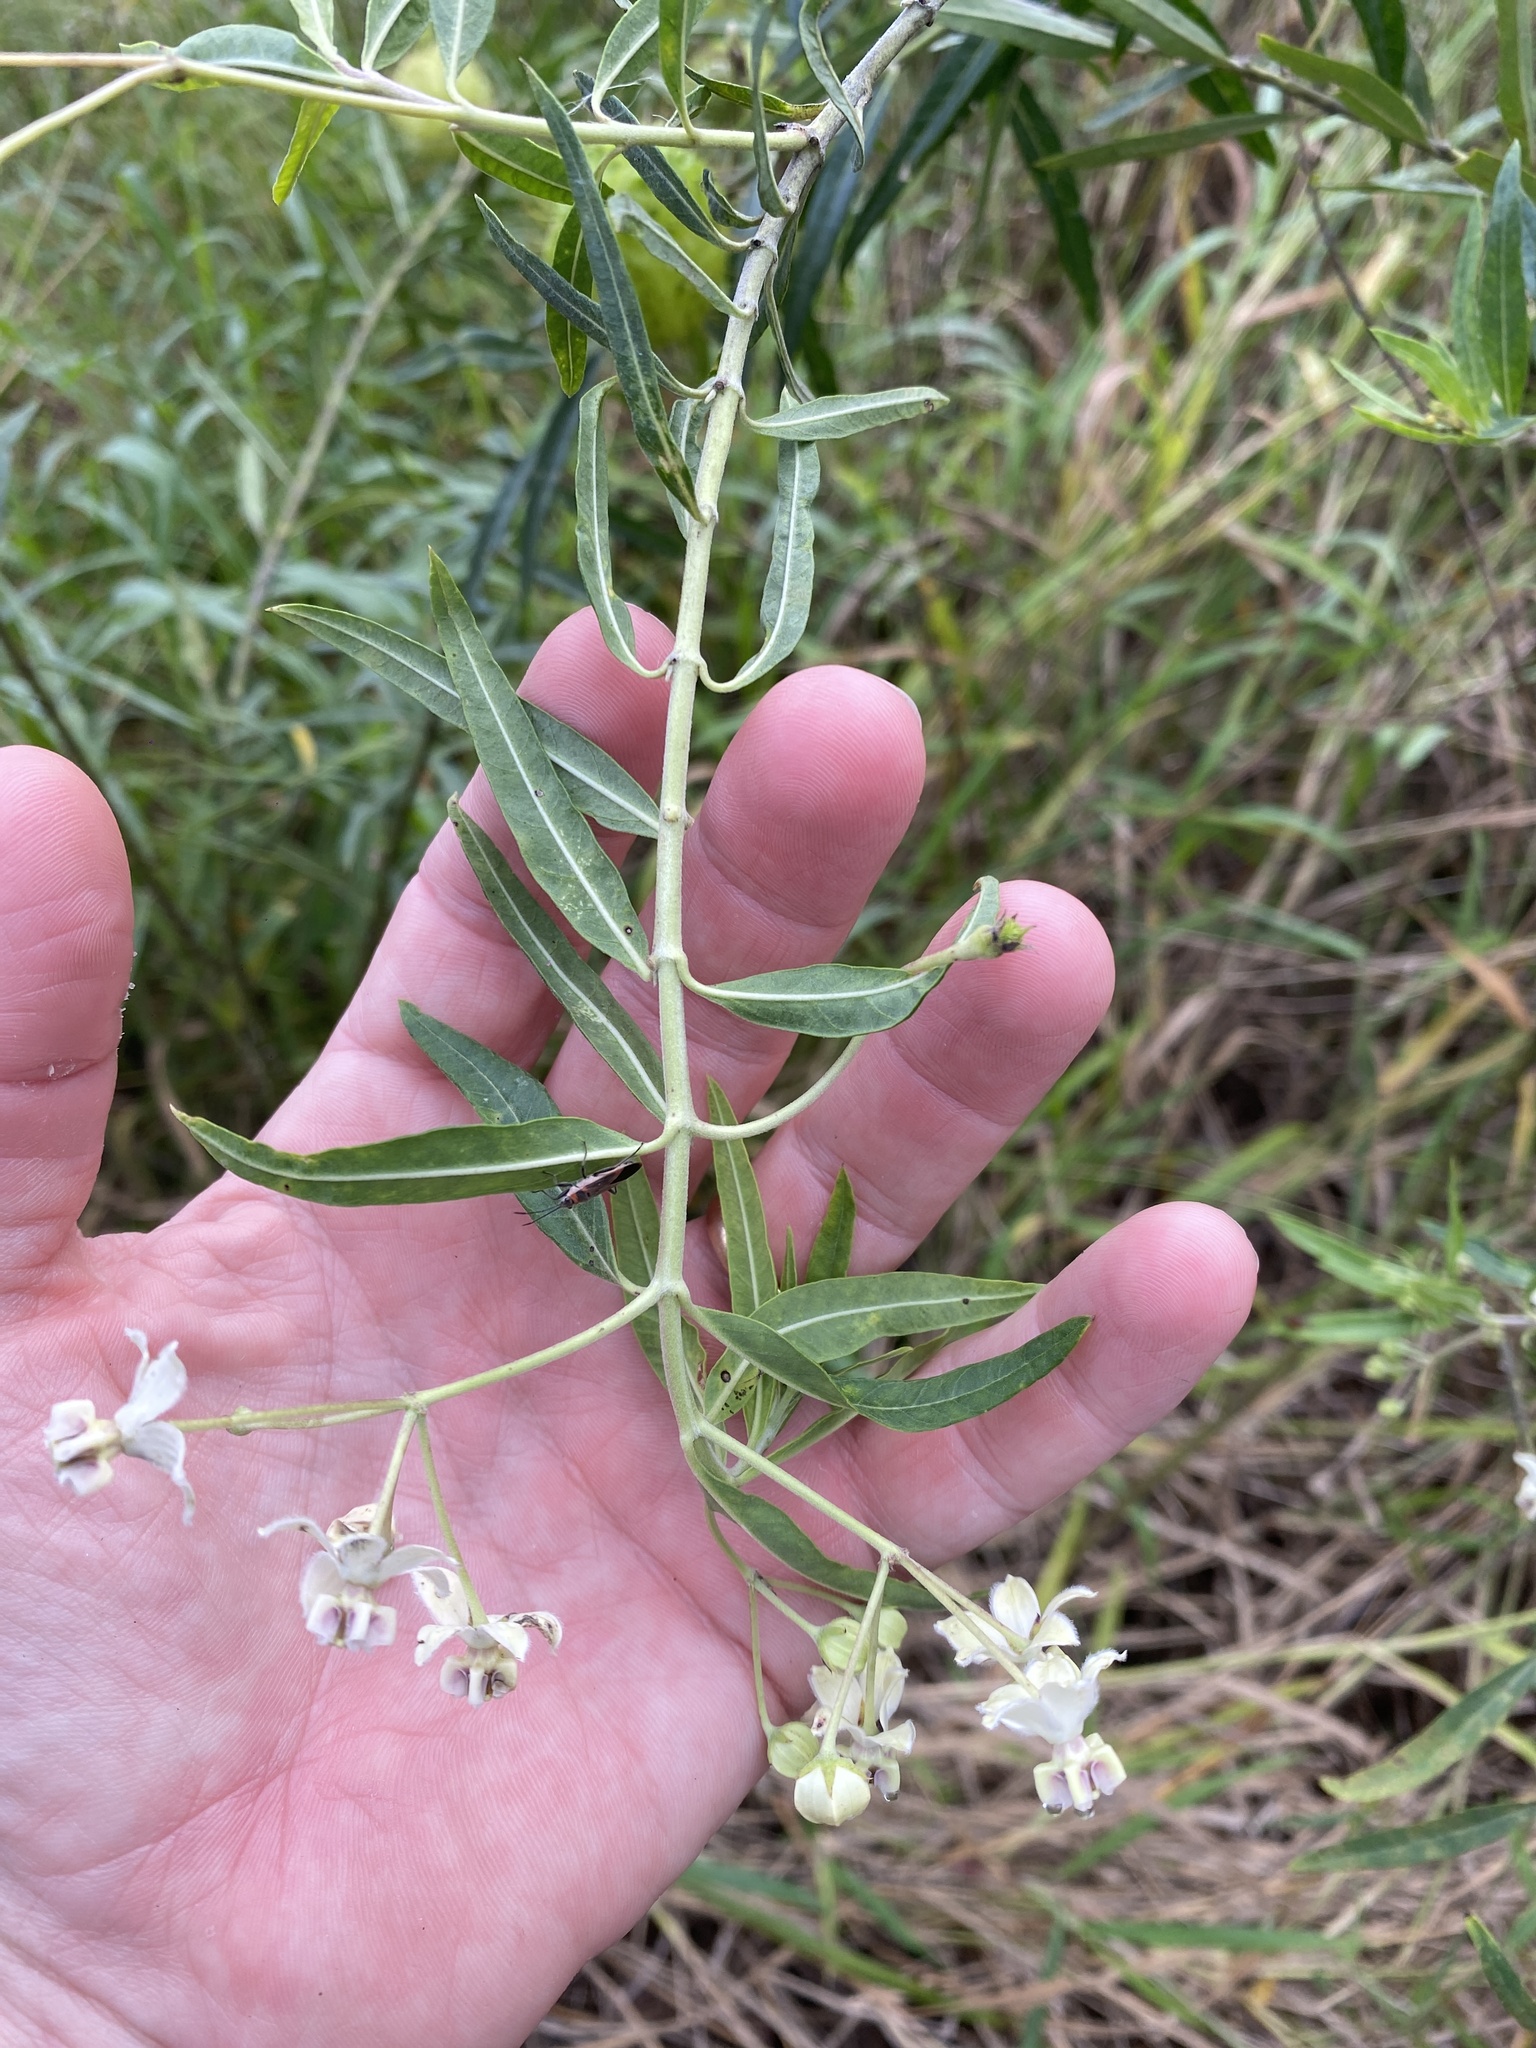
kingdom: Plantae
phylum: Tracheophyta
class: Magnoliopsida
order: Gentianales
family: Apocynaceae
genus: Gomphocarpus
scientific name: Gomphocarpus physocarpus
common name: Balloon cotton bush
